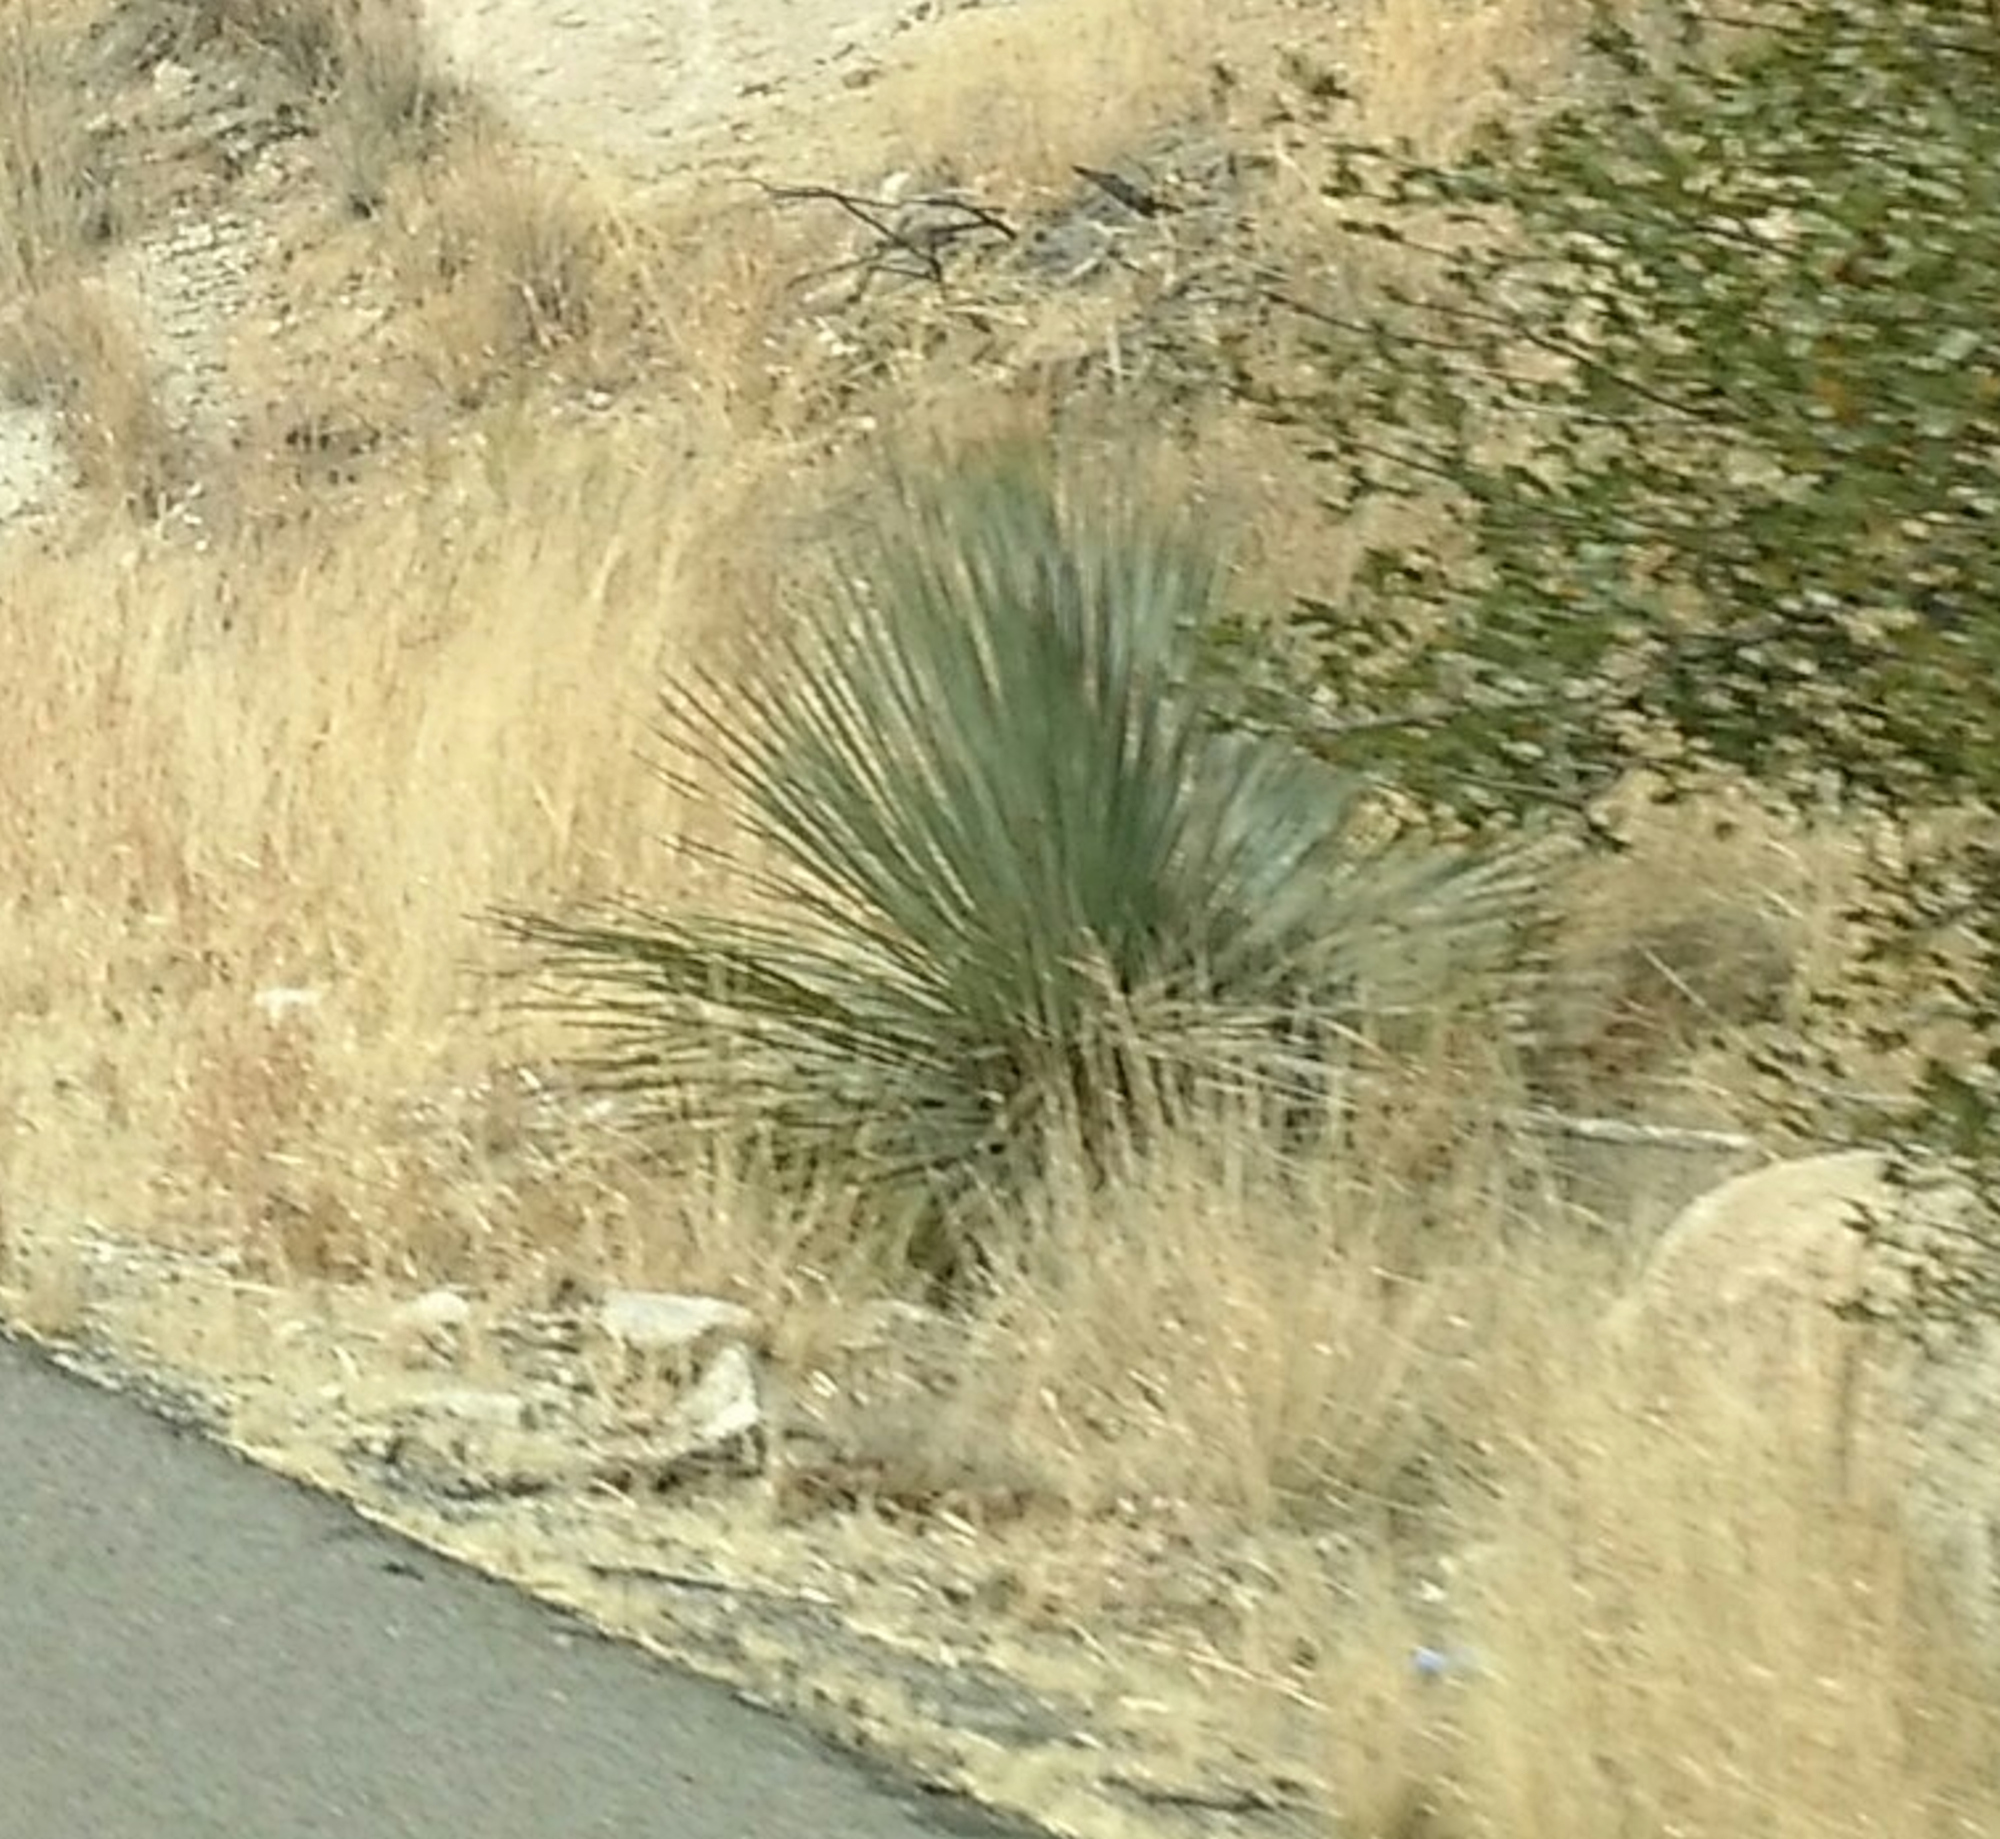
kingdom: Plantae
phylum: Tracheophyta
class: Liliopsida
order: Asparagales
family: Asparagaceae
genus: Dasylirion
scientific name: Dasylirion wheeleri
